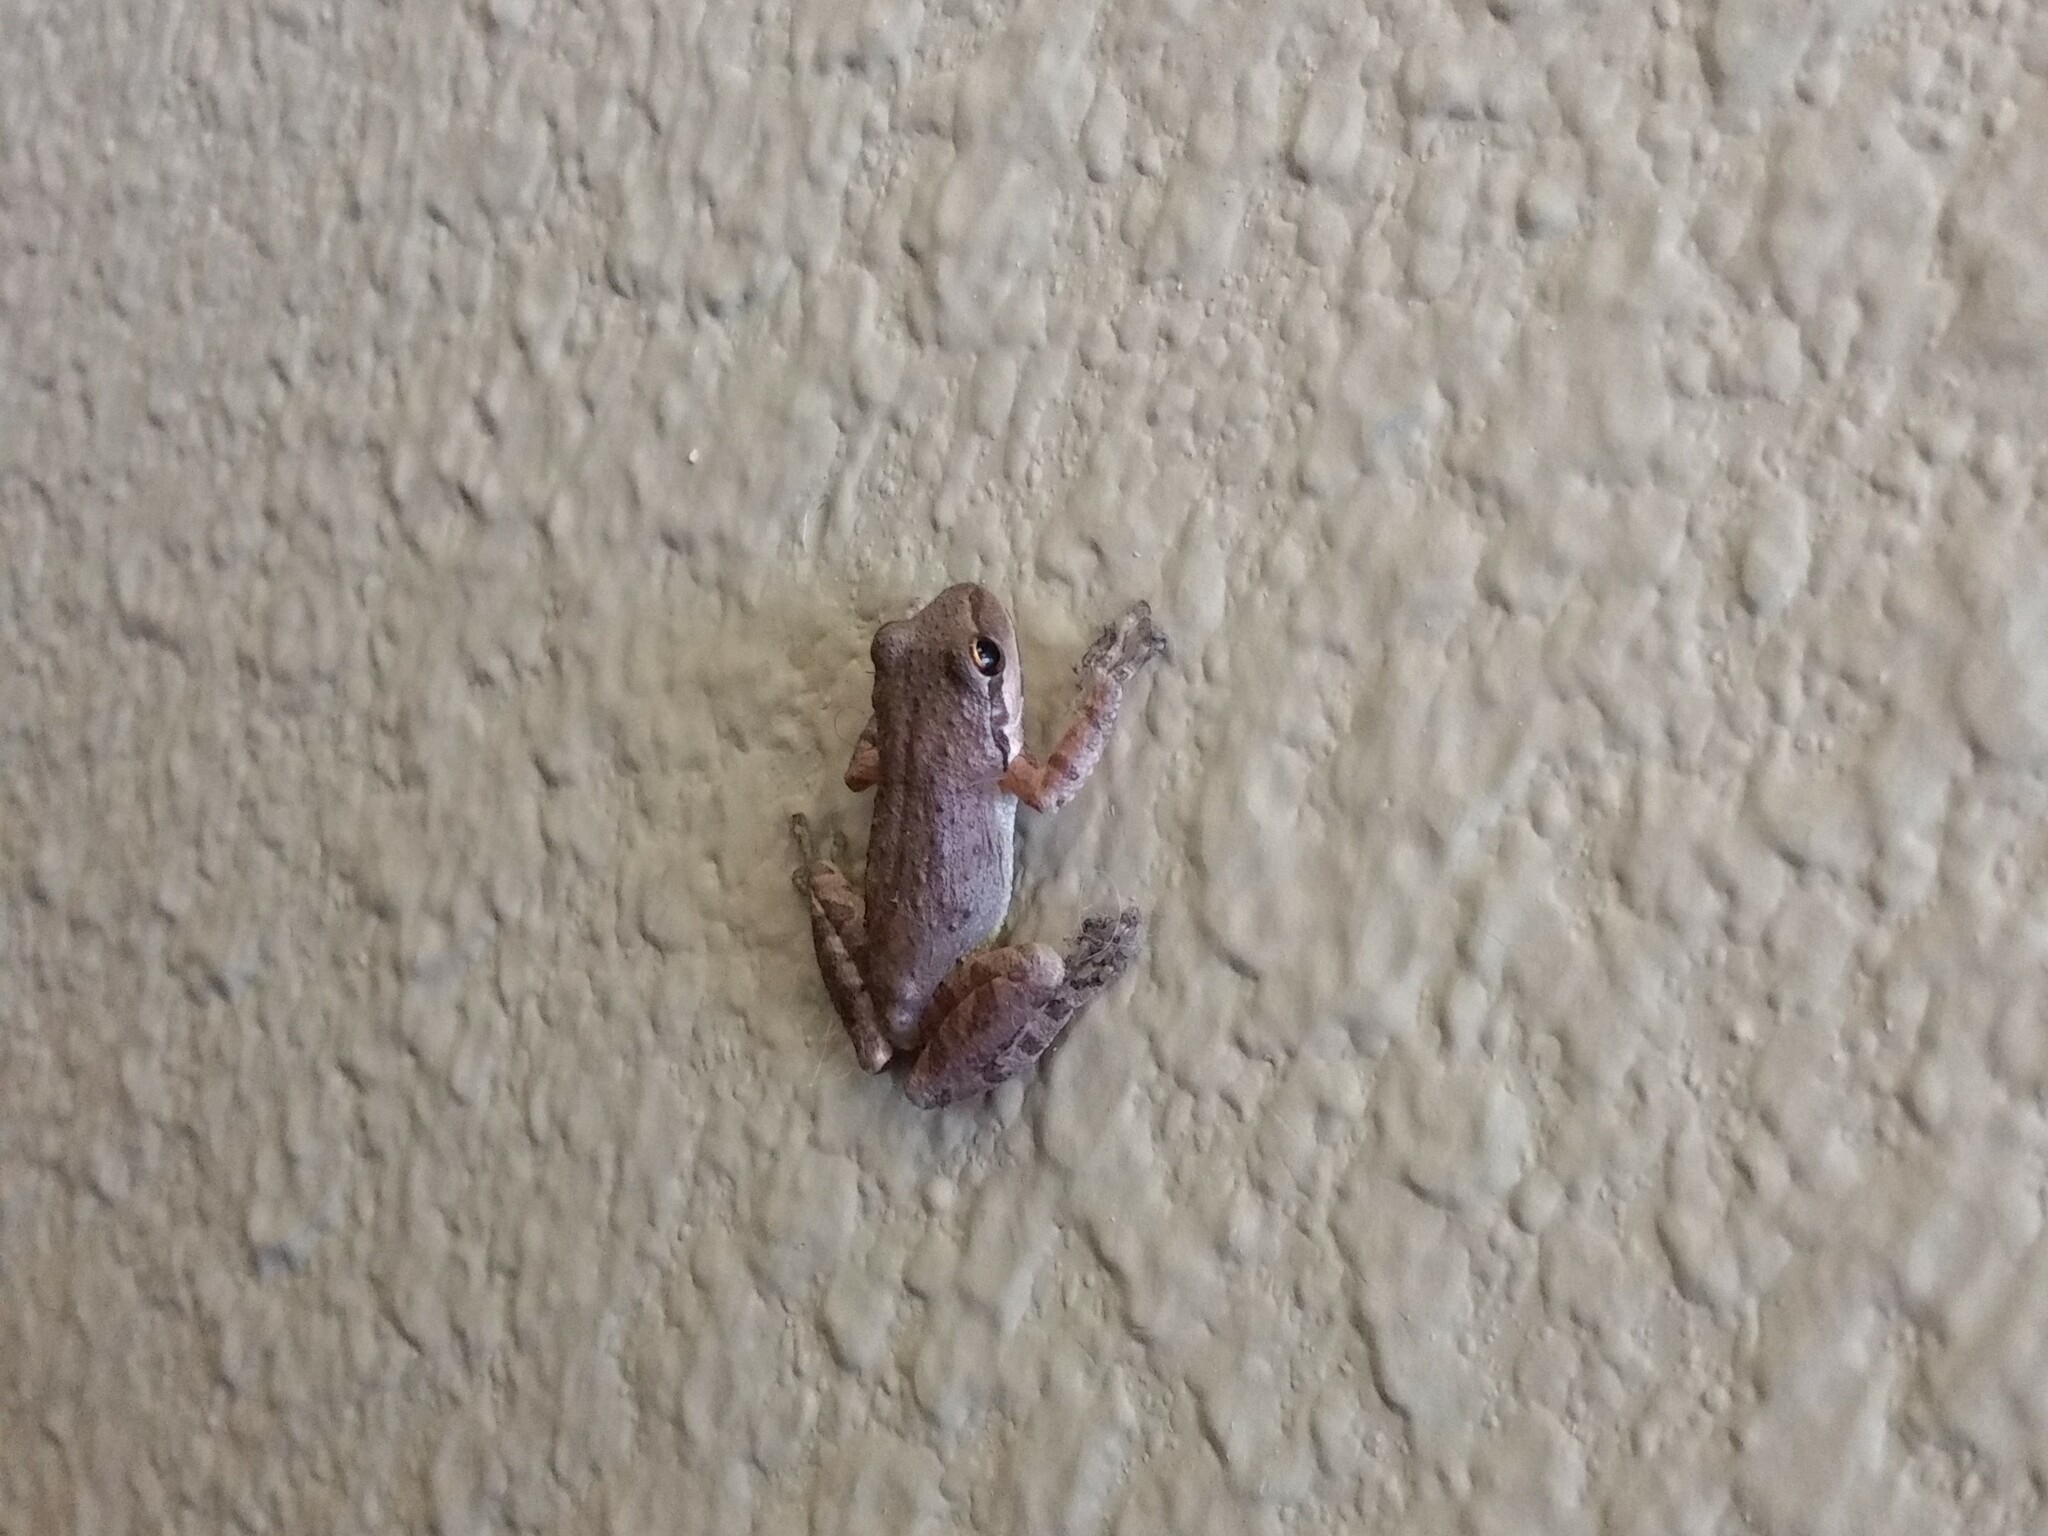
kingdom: Animalia
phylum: Chordata
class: Amphibia
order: Anura
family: Hylidae
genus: Pseudacris
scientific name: Pseudacris regilla
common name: Pacific chorus frog
